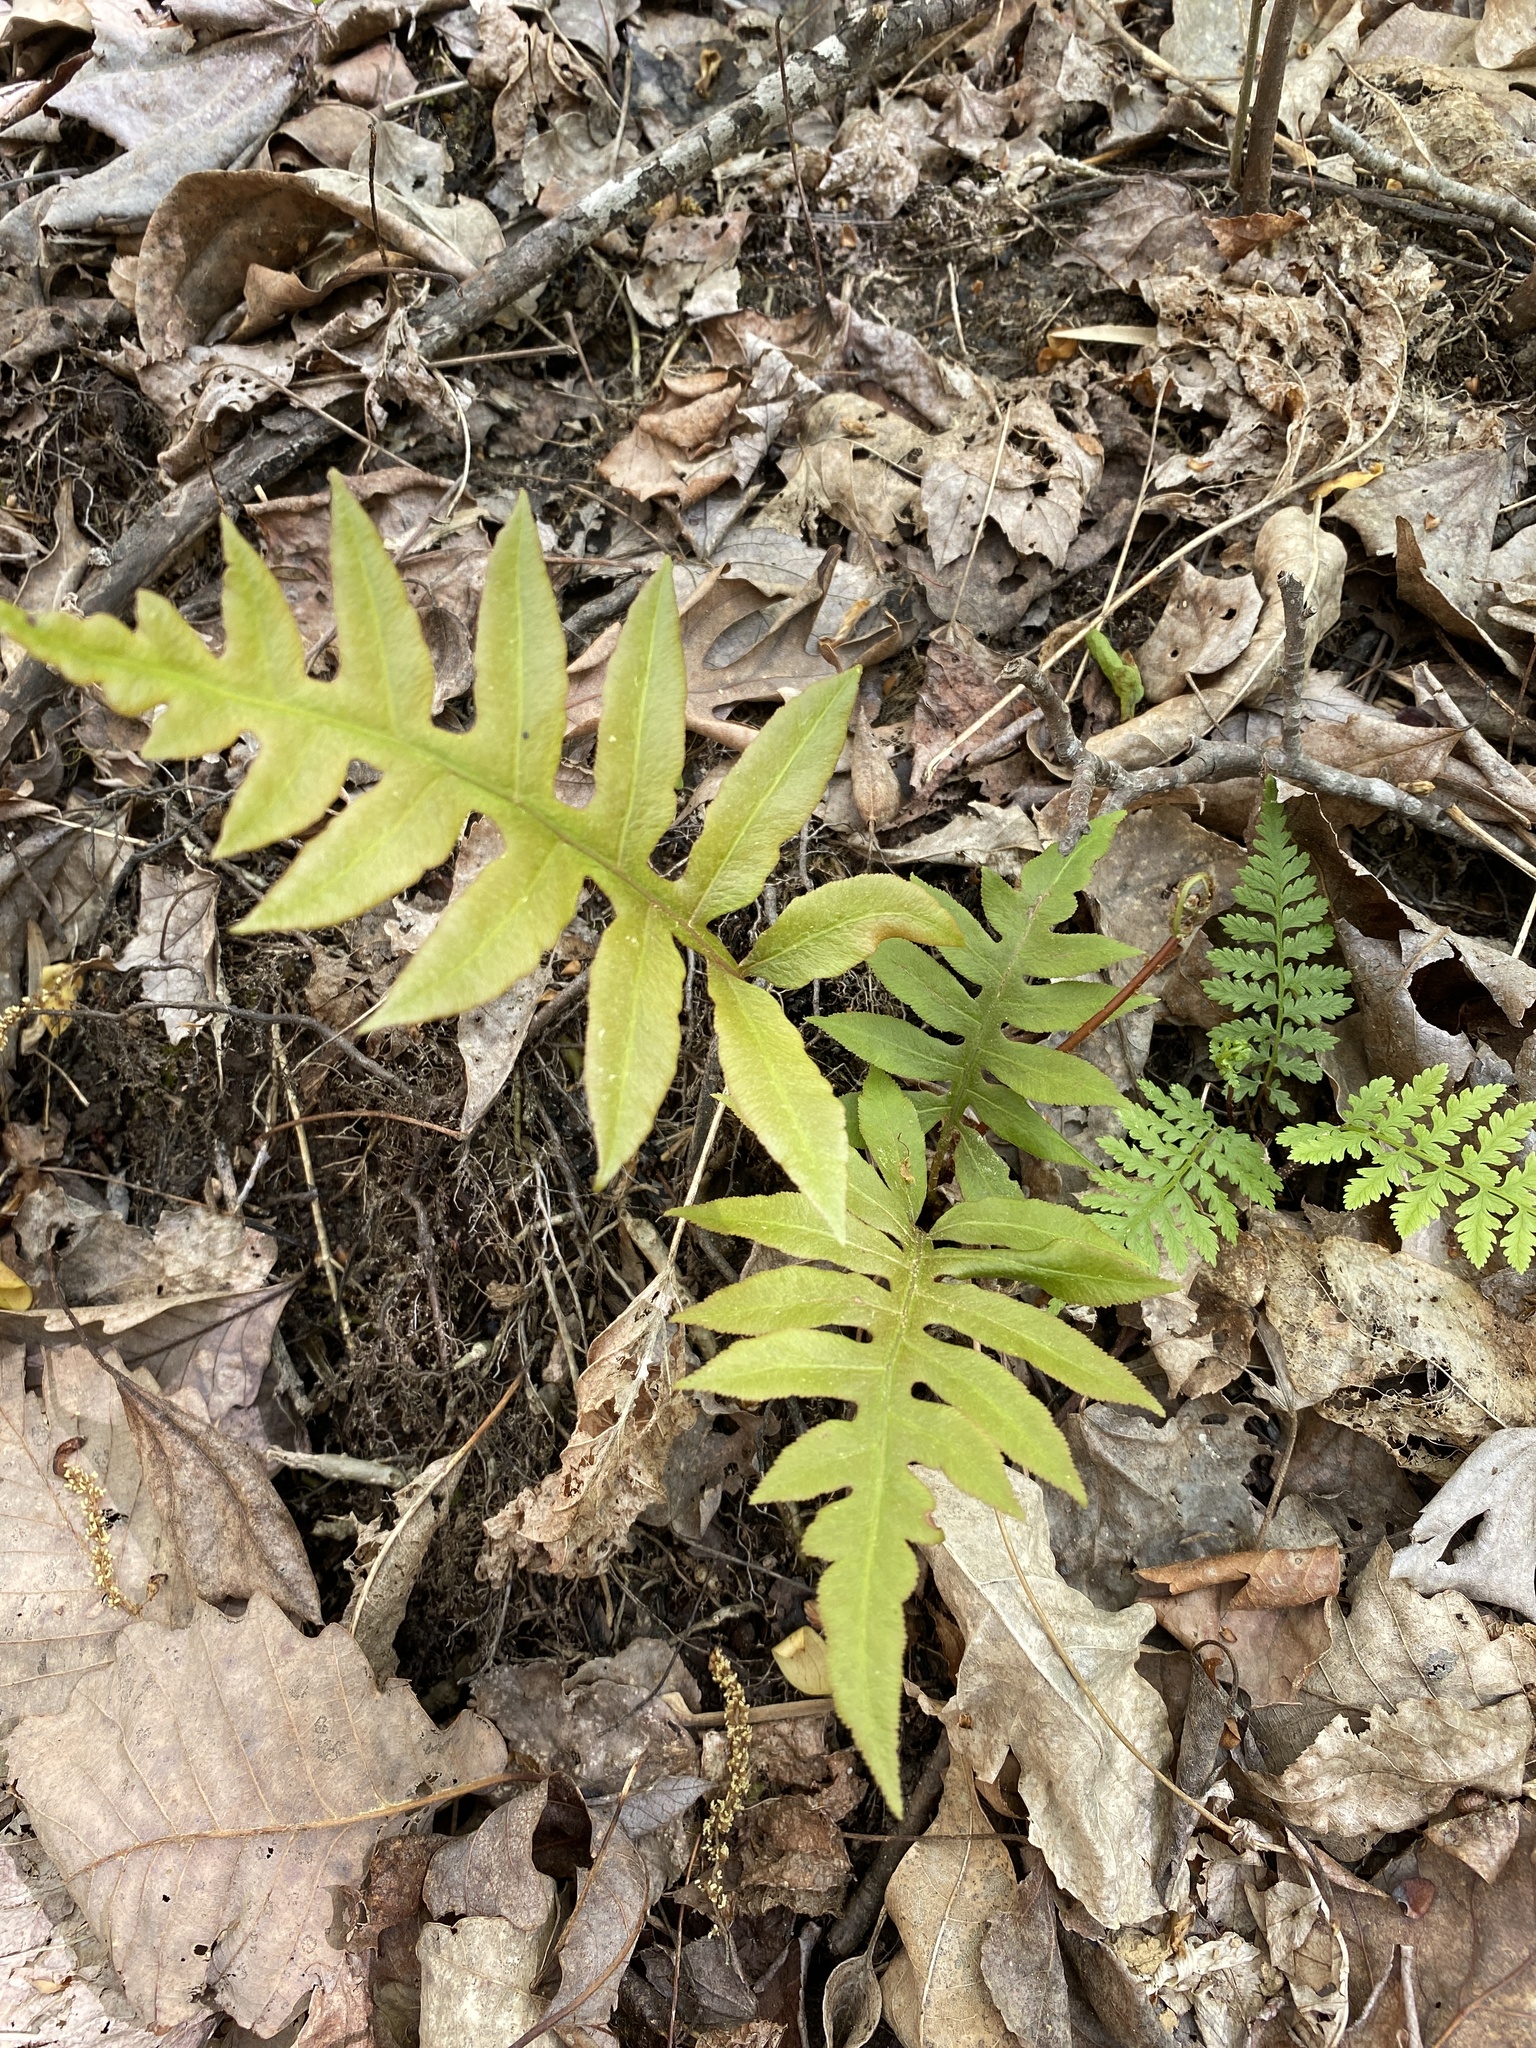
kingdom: Plantae
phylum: Tracheophyta
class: Polypodiopsida
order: Polypodiales
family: Blechnaceae
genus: Lorinseria
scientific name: Lorinseria areolata
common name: Dwarf chain fern
